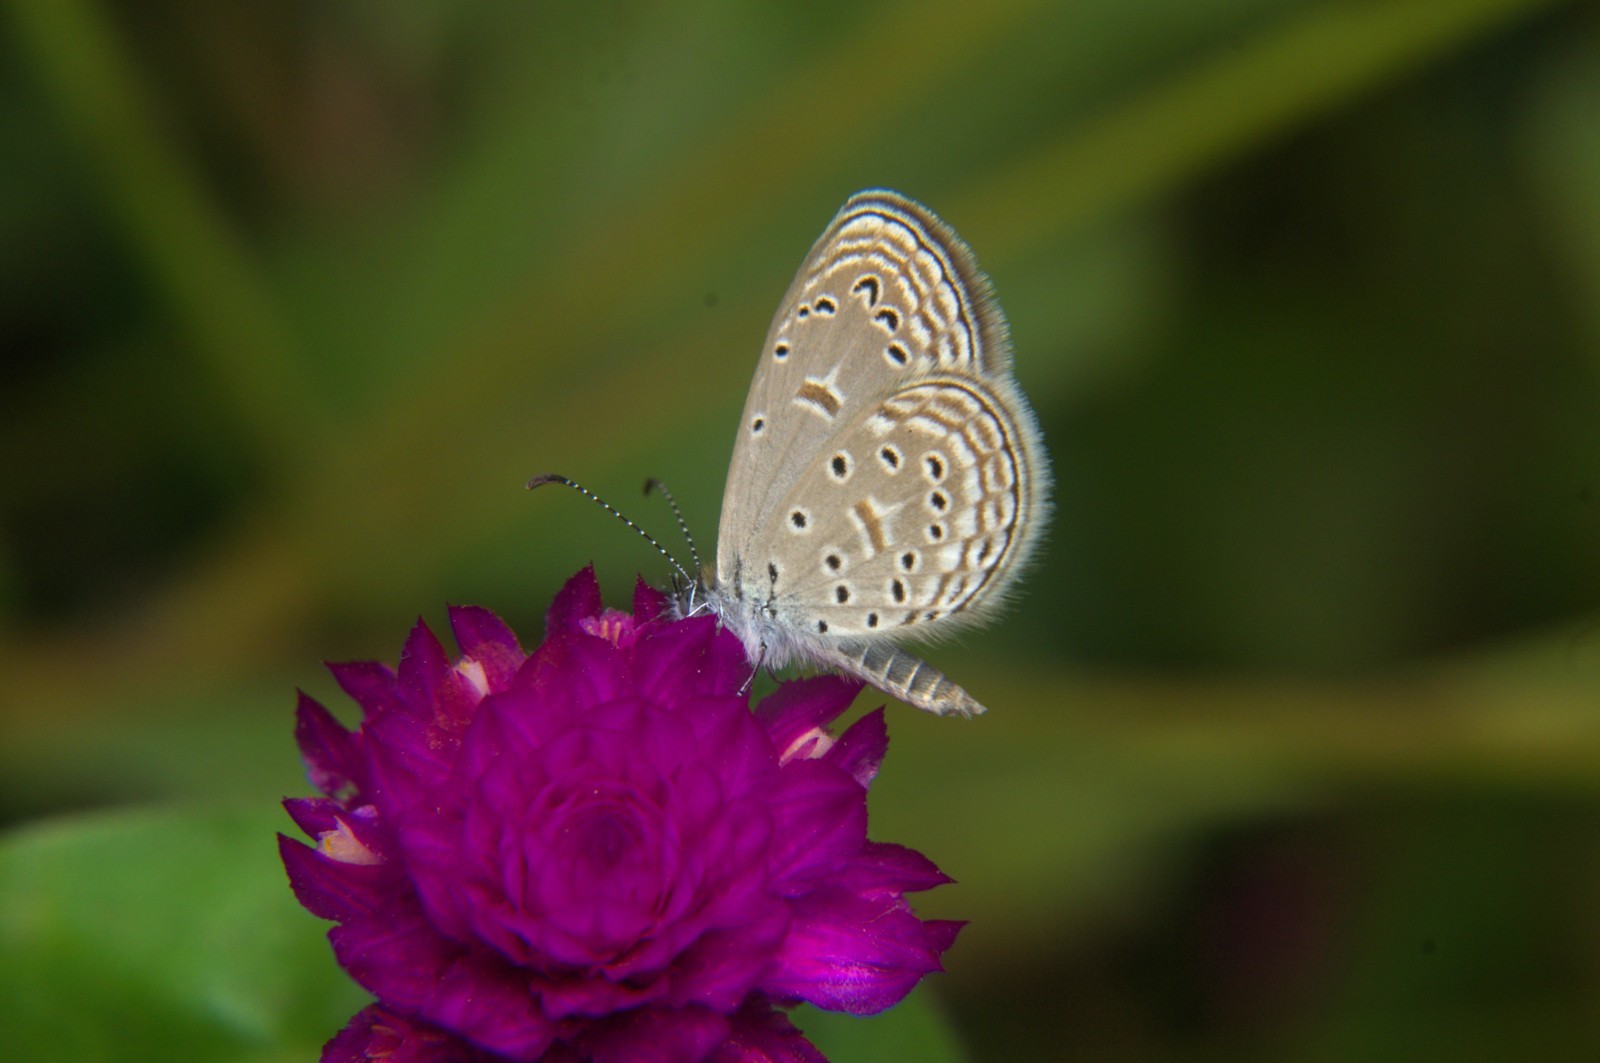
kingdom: Animalia
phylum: Arthropoda
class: Insecta
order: Lepidoptera
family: Lycaenidae
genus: Zizula
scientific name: Zizula hylax
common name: Gaika blue
